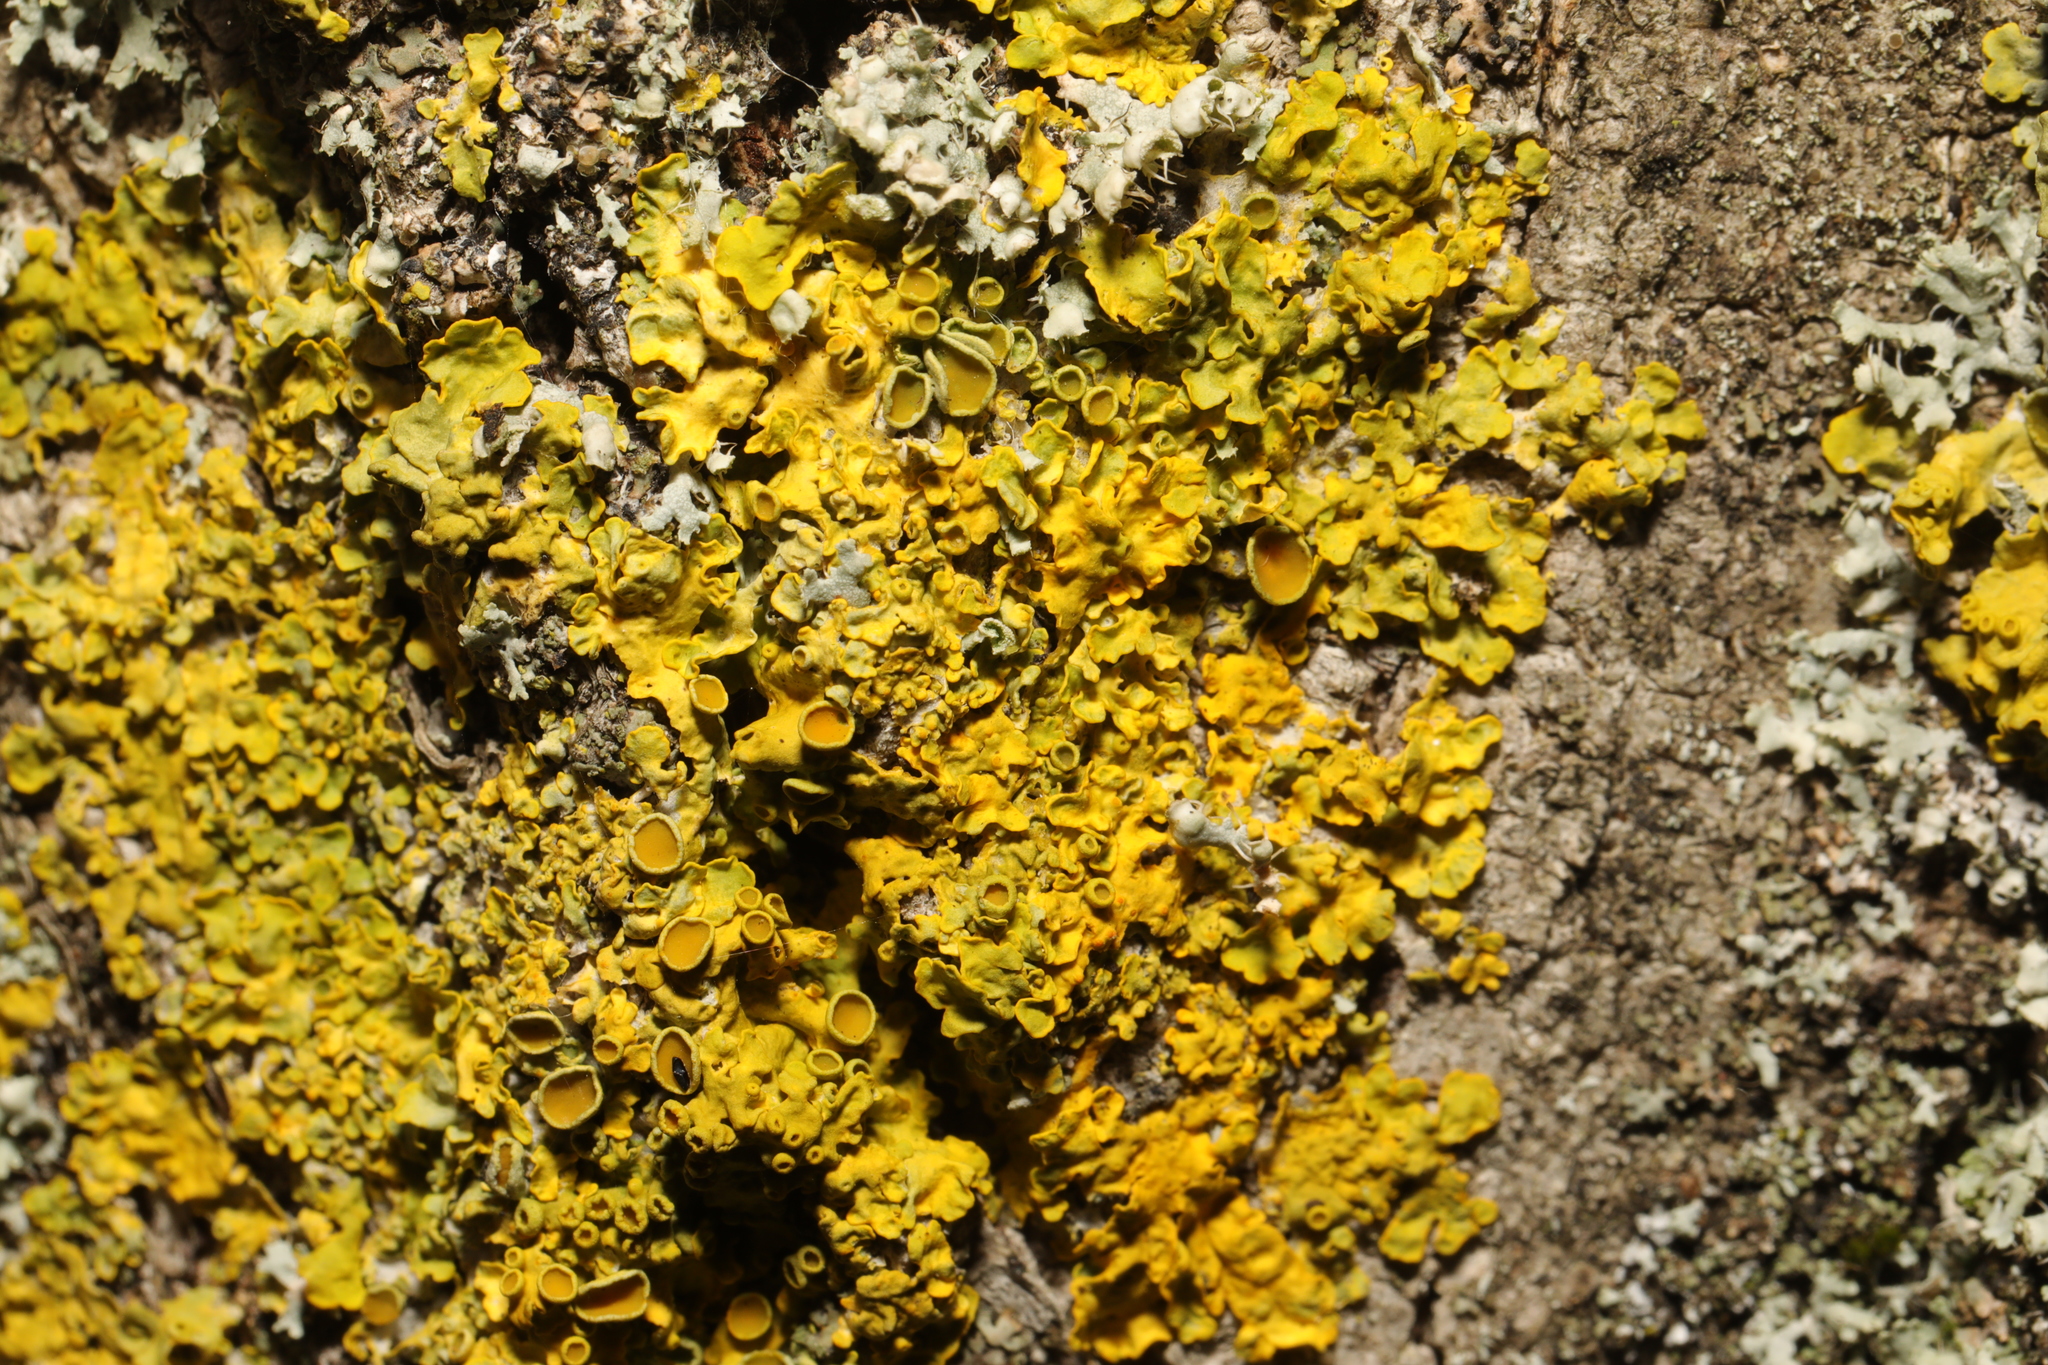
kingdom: Fungi
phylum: Ascomycota
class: Lecanoromycetes
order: Teloschistales
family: Teloschistaceae
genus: Xanthoria
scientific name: Xanthoria parietina
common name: Common orange lichen
